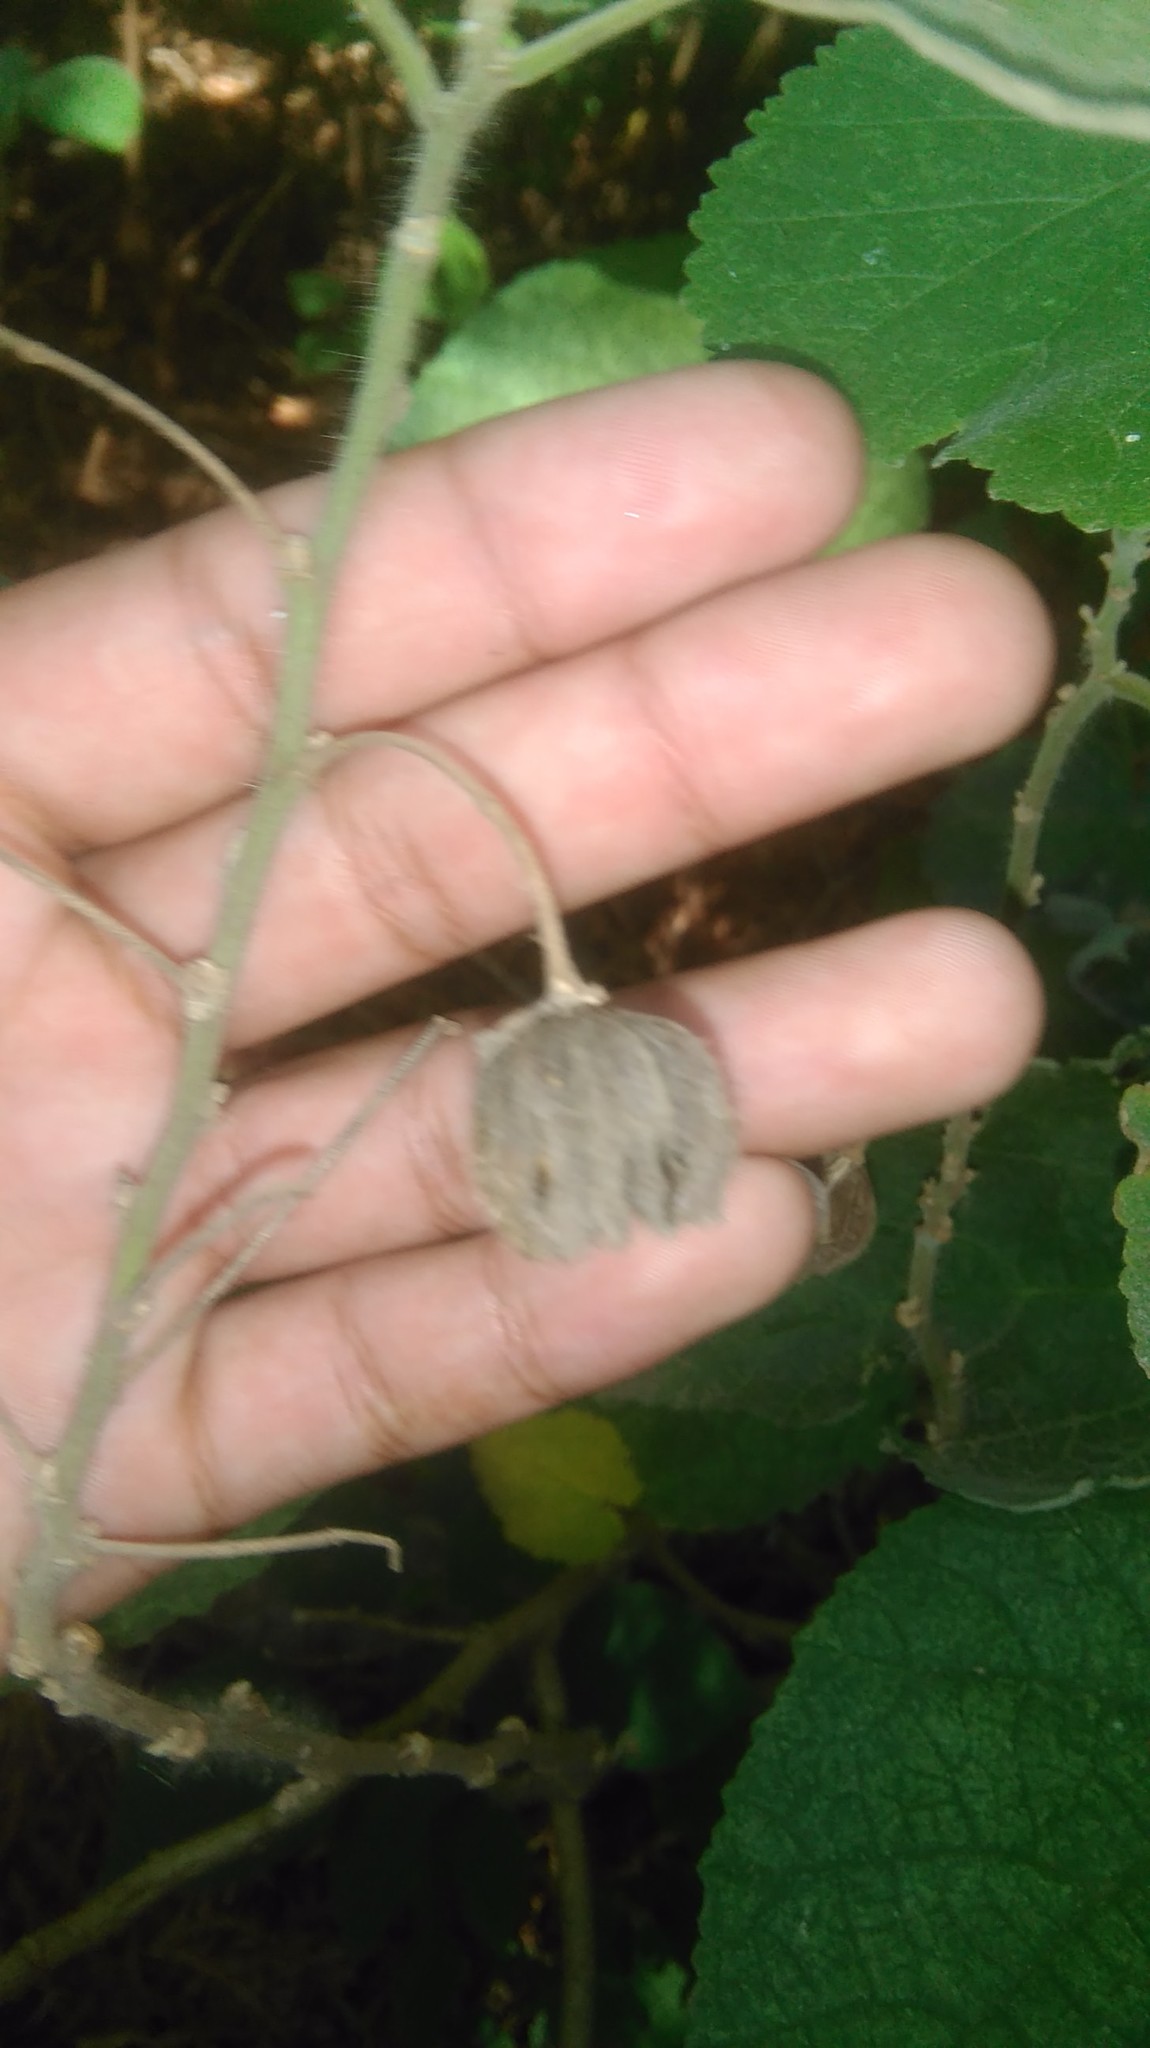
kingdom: Plantae
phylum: Tracheophyta
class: Magnoliopsida
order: Malvales
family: Malvaceae
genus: Abutilon
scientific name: Abutilon grandifolium
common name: Hairy abutilon
